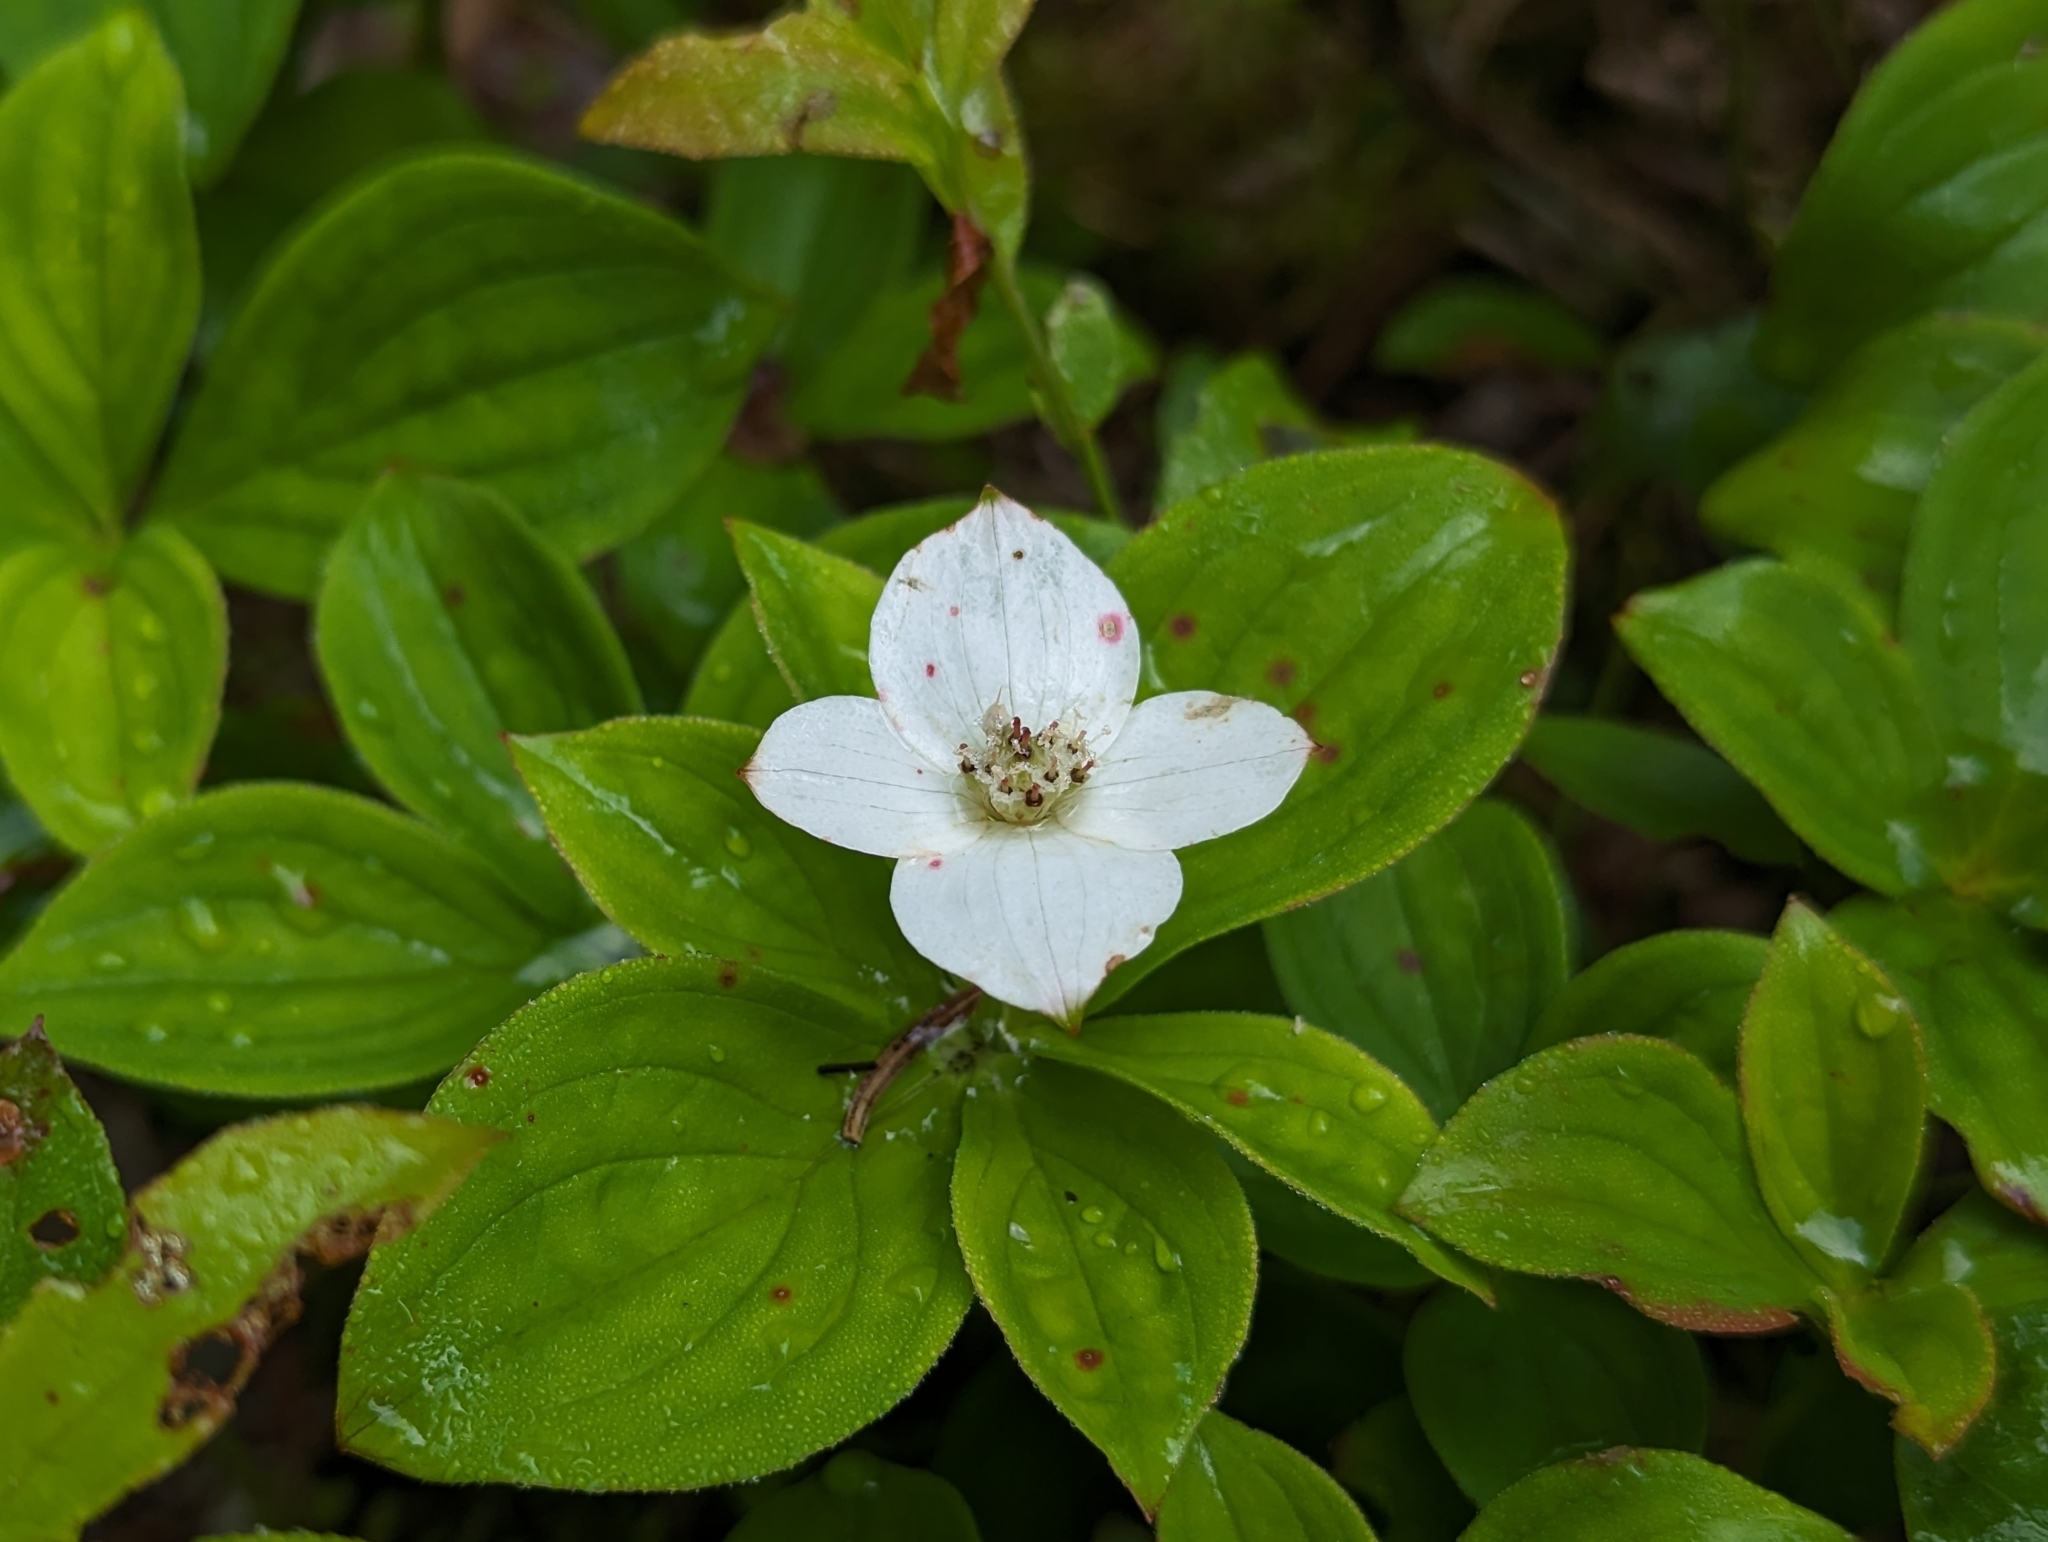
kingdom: Plantae
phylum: Tracheophyta
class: Magnoliopsida
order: Cornales
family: Cornaceae
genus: Cornus
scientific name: Cornus canadensis
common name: Creeping dogwood
